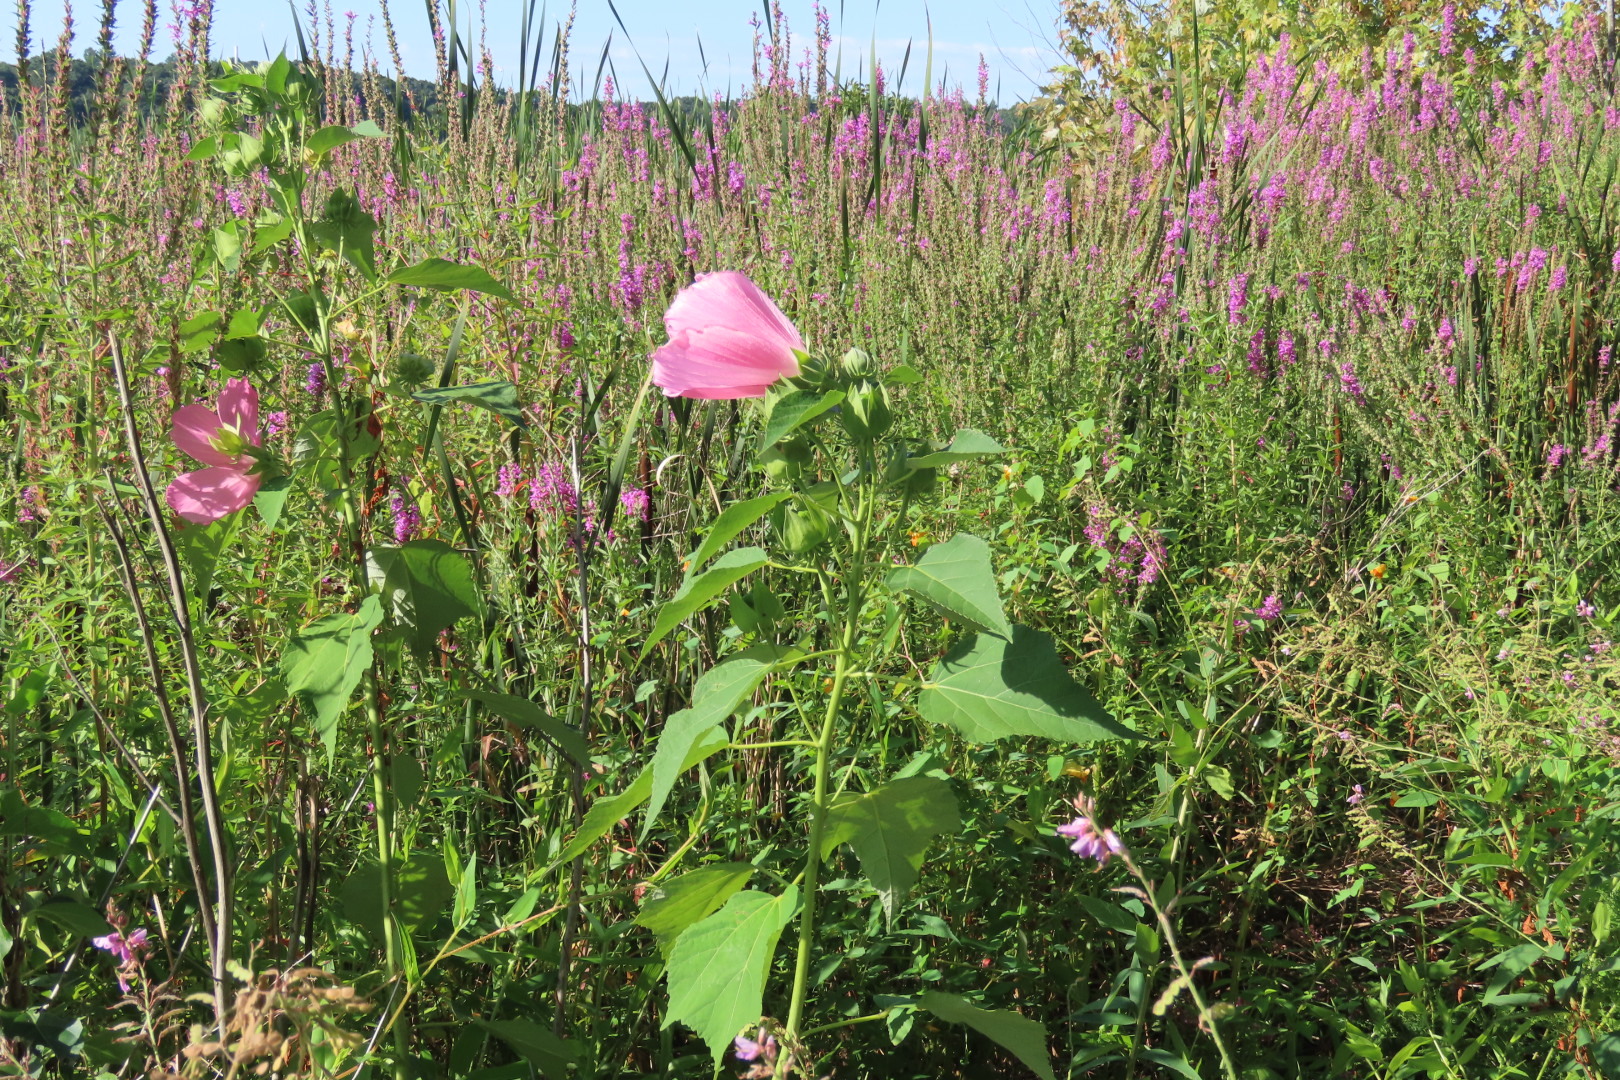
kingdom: Plantae
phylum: Tracheophyta
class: Magnoliopsida
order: Malvales
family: Malvaceae
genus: Hibiscus
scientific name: Hibiscus moscheutos
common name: Common rose-mallow
